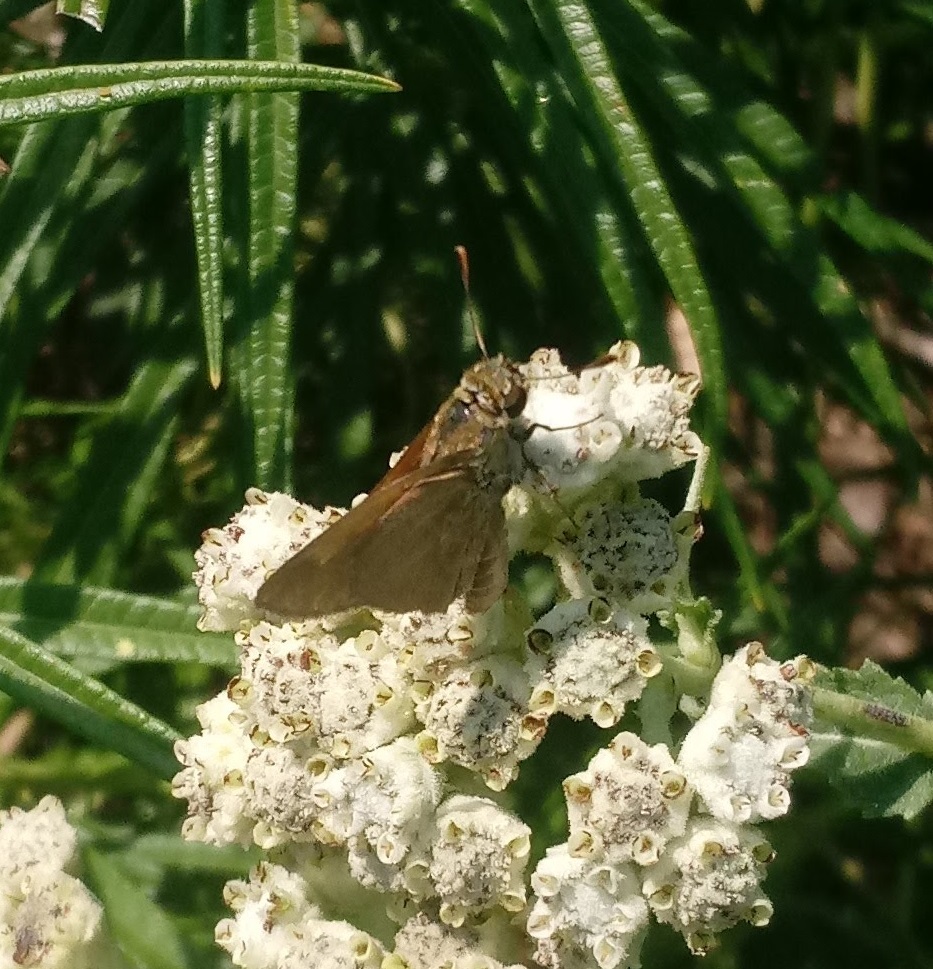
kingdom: Animalia
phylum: Arthropoda
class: Insecta
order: Lepidoptera
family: Hesperiidae
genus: Polites
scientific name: Polites themistocles
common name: Tawny-edged skipper
